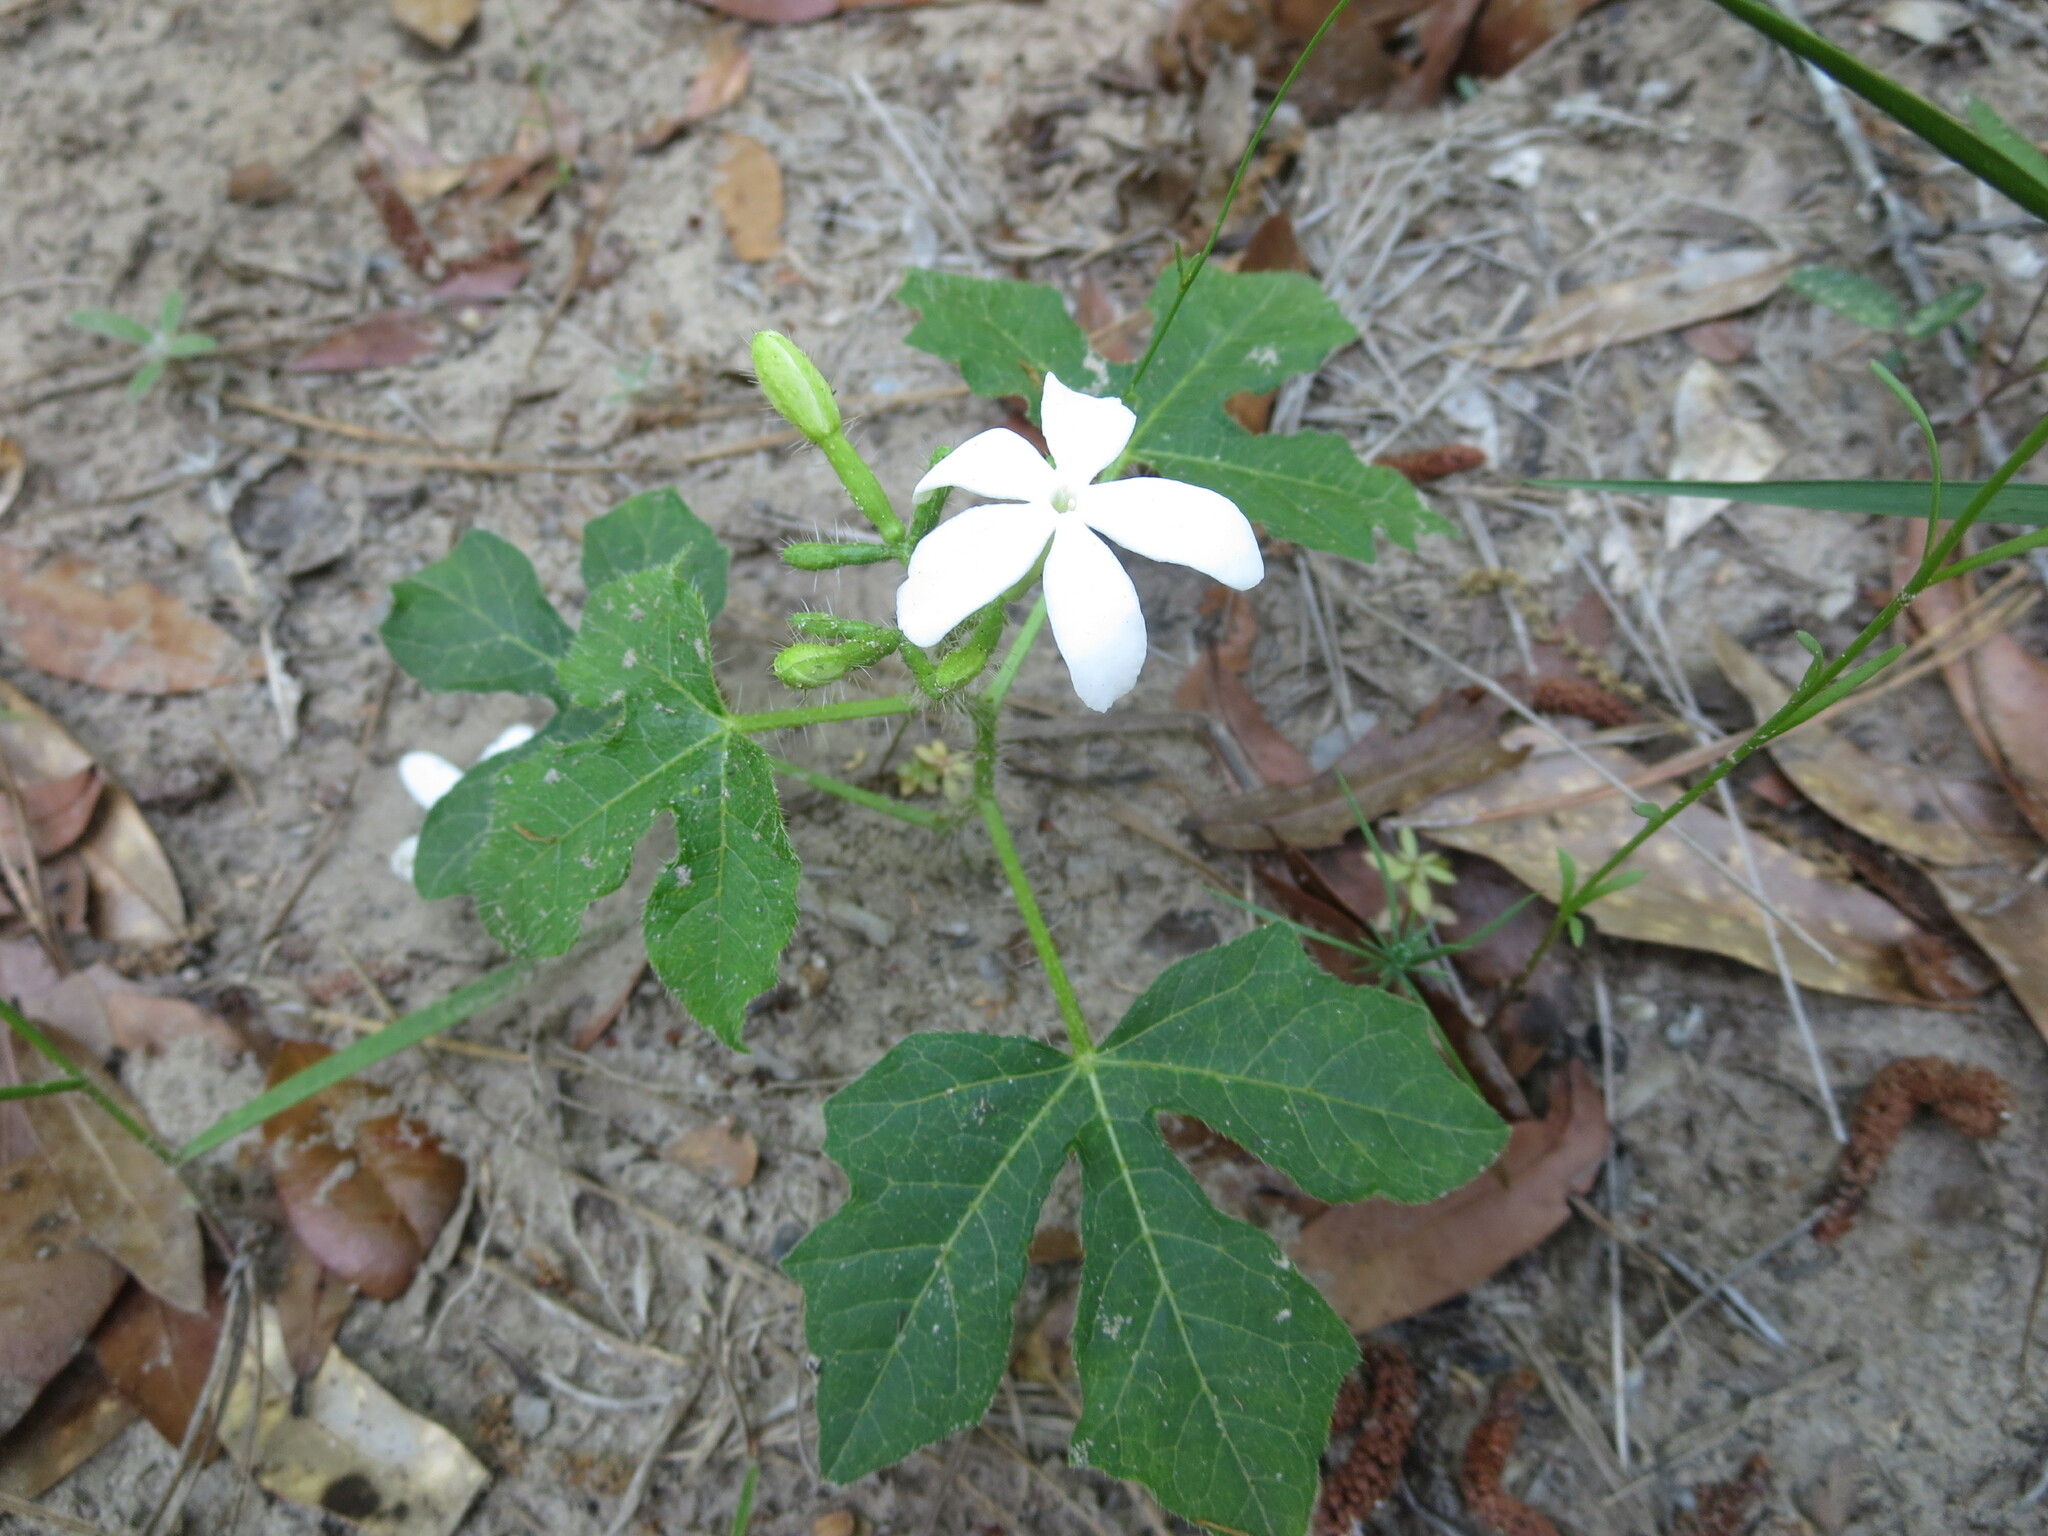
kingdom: Plantae
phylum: Tracheophyta
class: Magnoliopsida
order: Malpighiales
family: Euphorbiaceae
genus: Cnidoscolus
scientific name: Cnidoscolus stimulosus
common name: Bull-nettle
